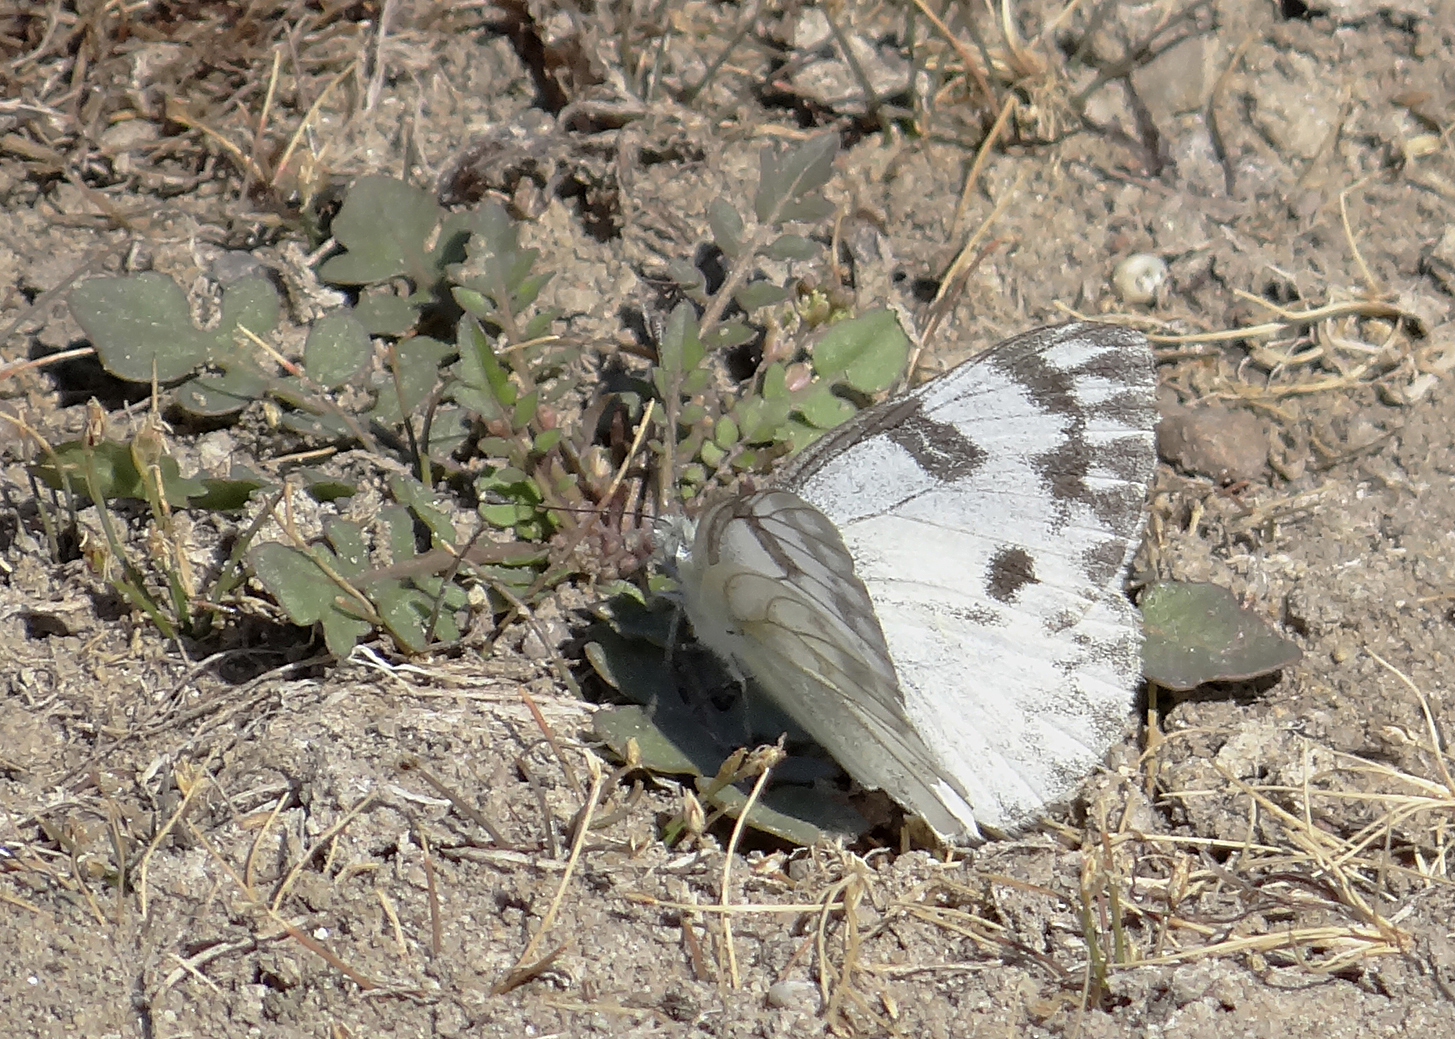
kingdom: Animalia
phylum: Arthropoda
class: Insecta
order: Lepidoptera
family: Pieridae
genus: Pontia
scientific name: Pontia occidentalis
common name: Western white
